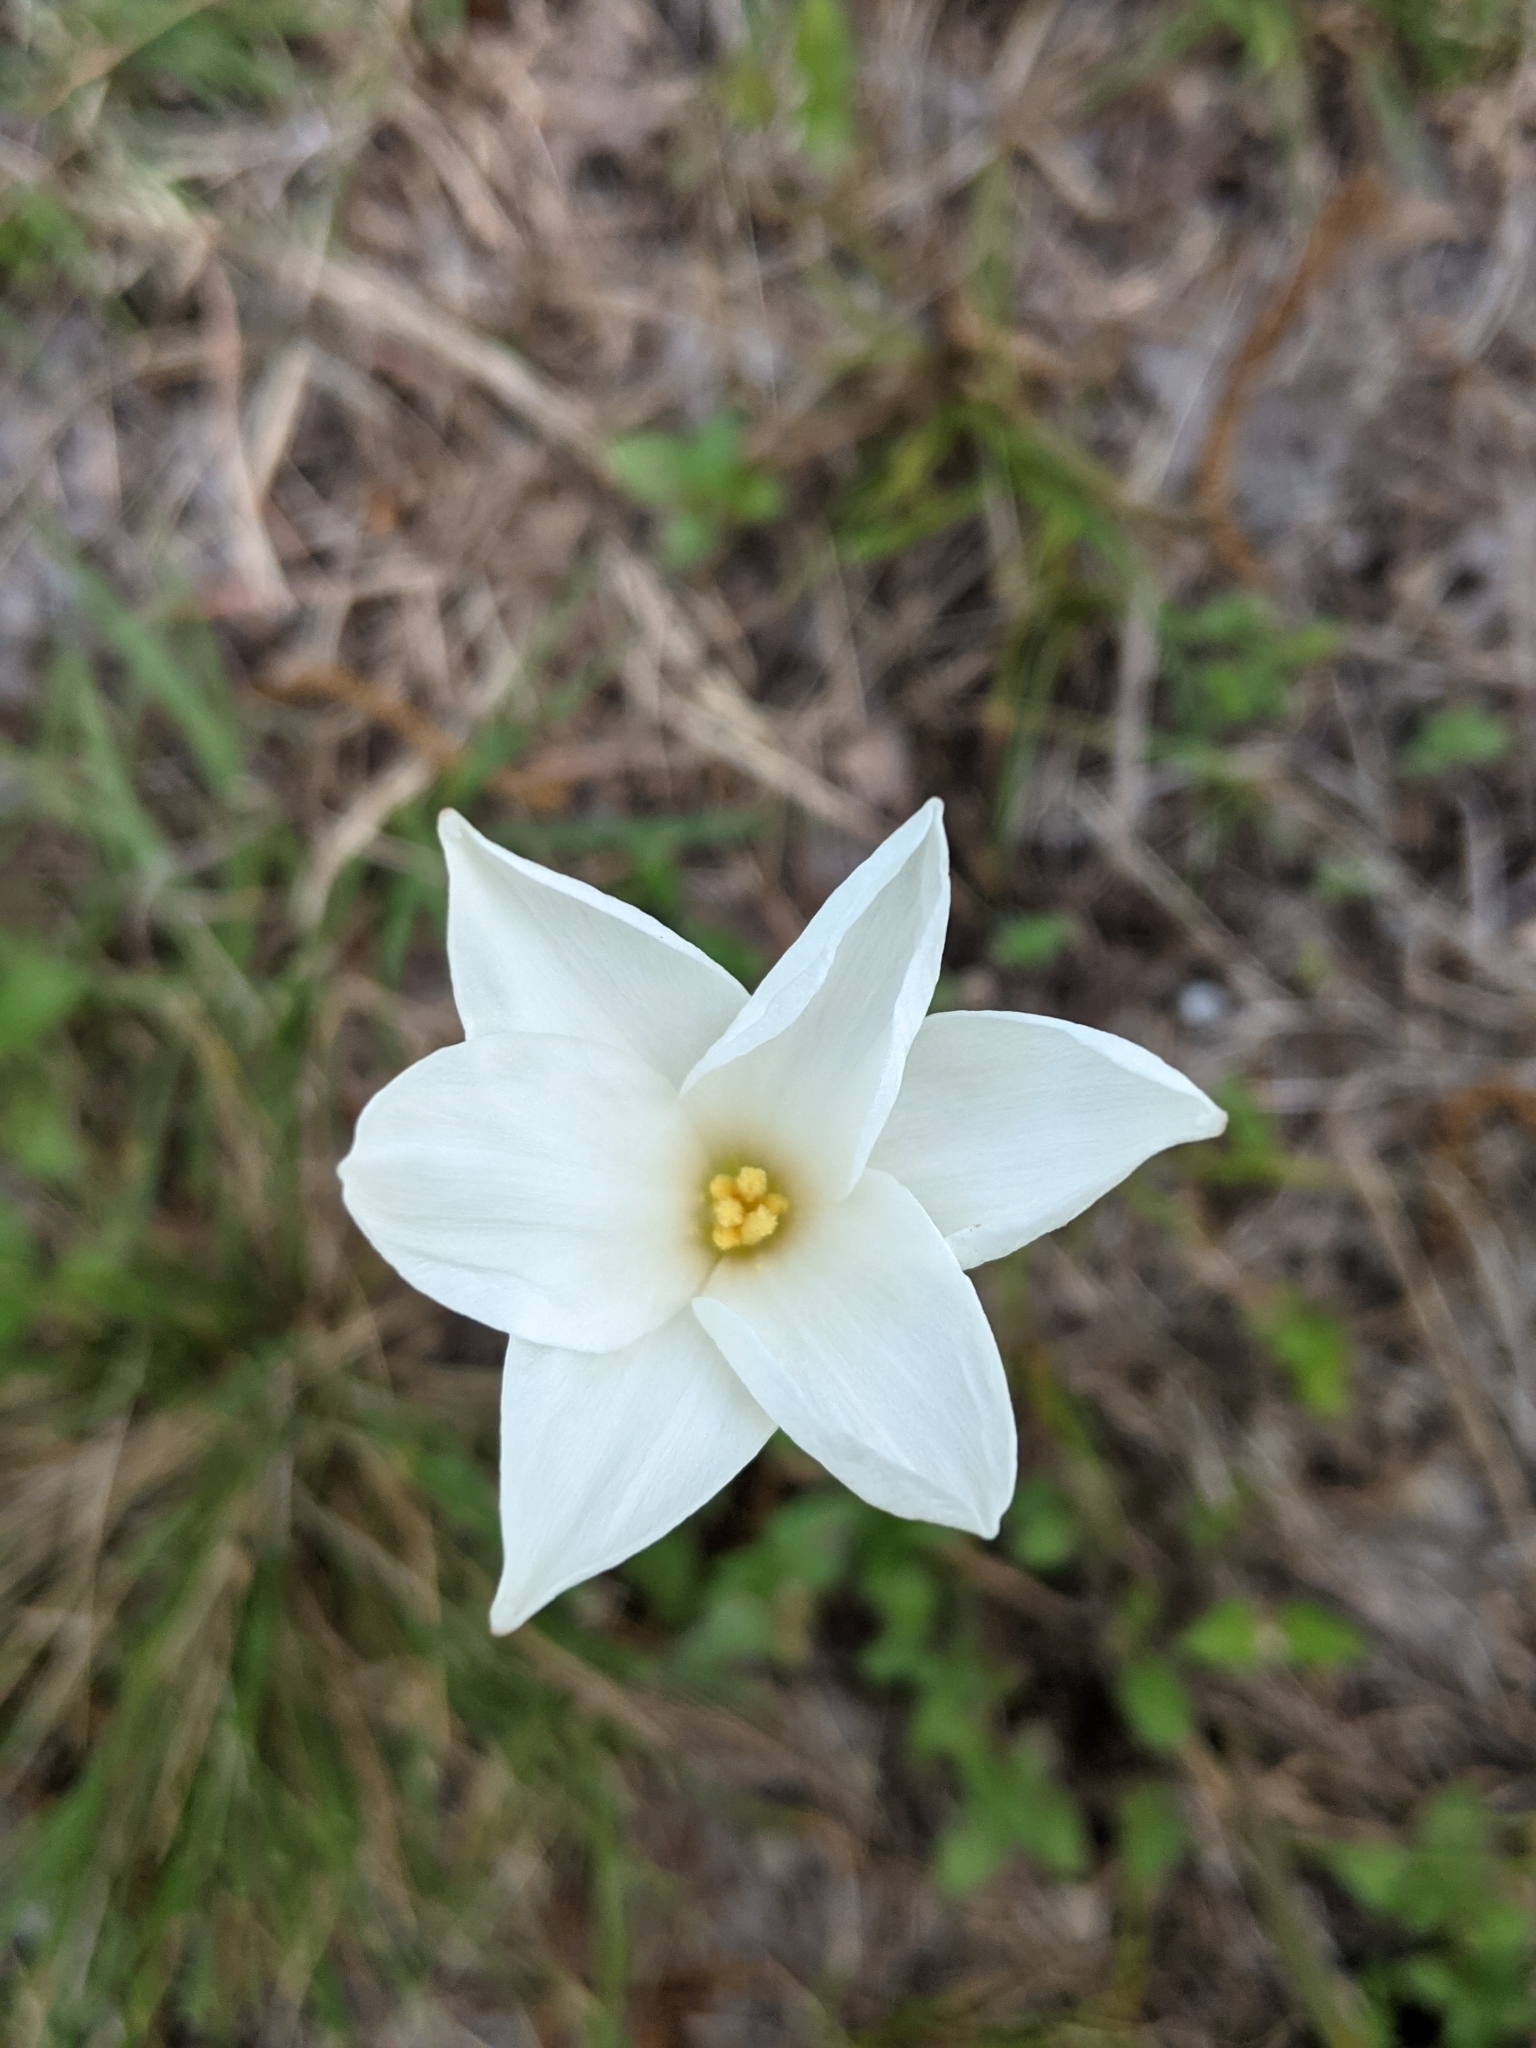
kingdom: Plantae
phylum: Tracheophyta
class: Liliopsida
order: Asparagales
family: Amaryllidaceae
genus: Zephyranthes
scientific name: Zephyranthes drummondii
